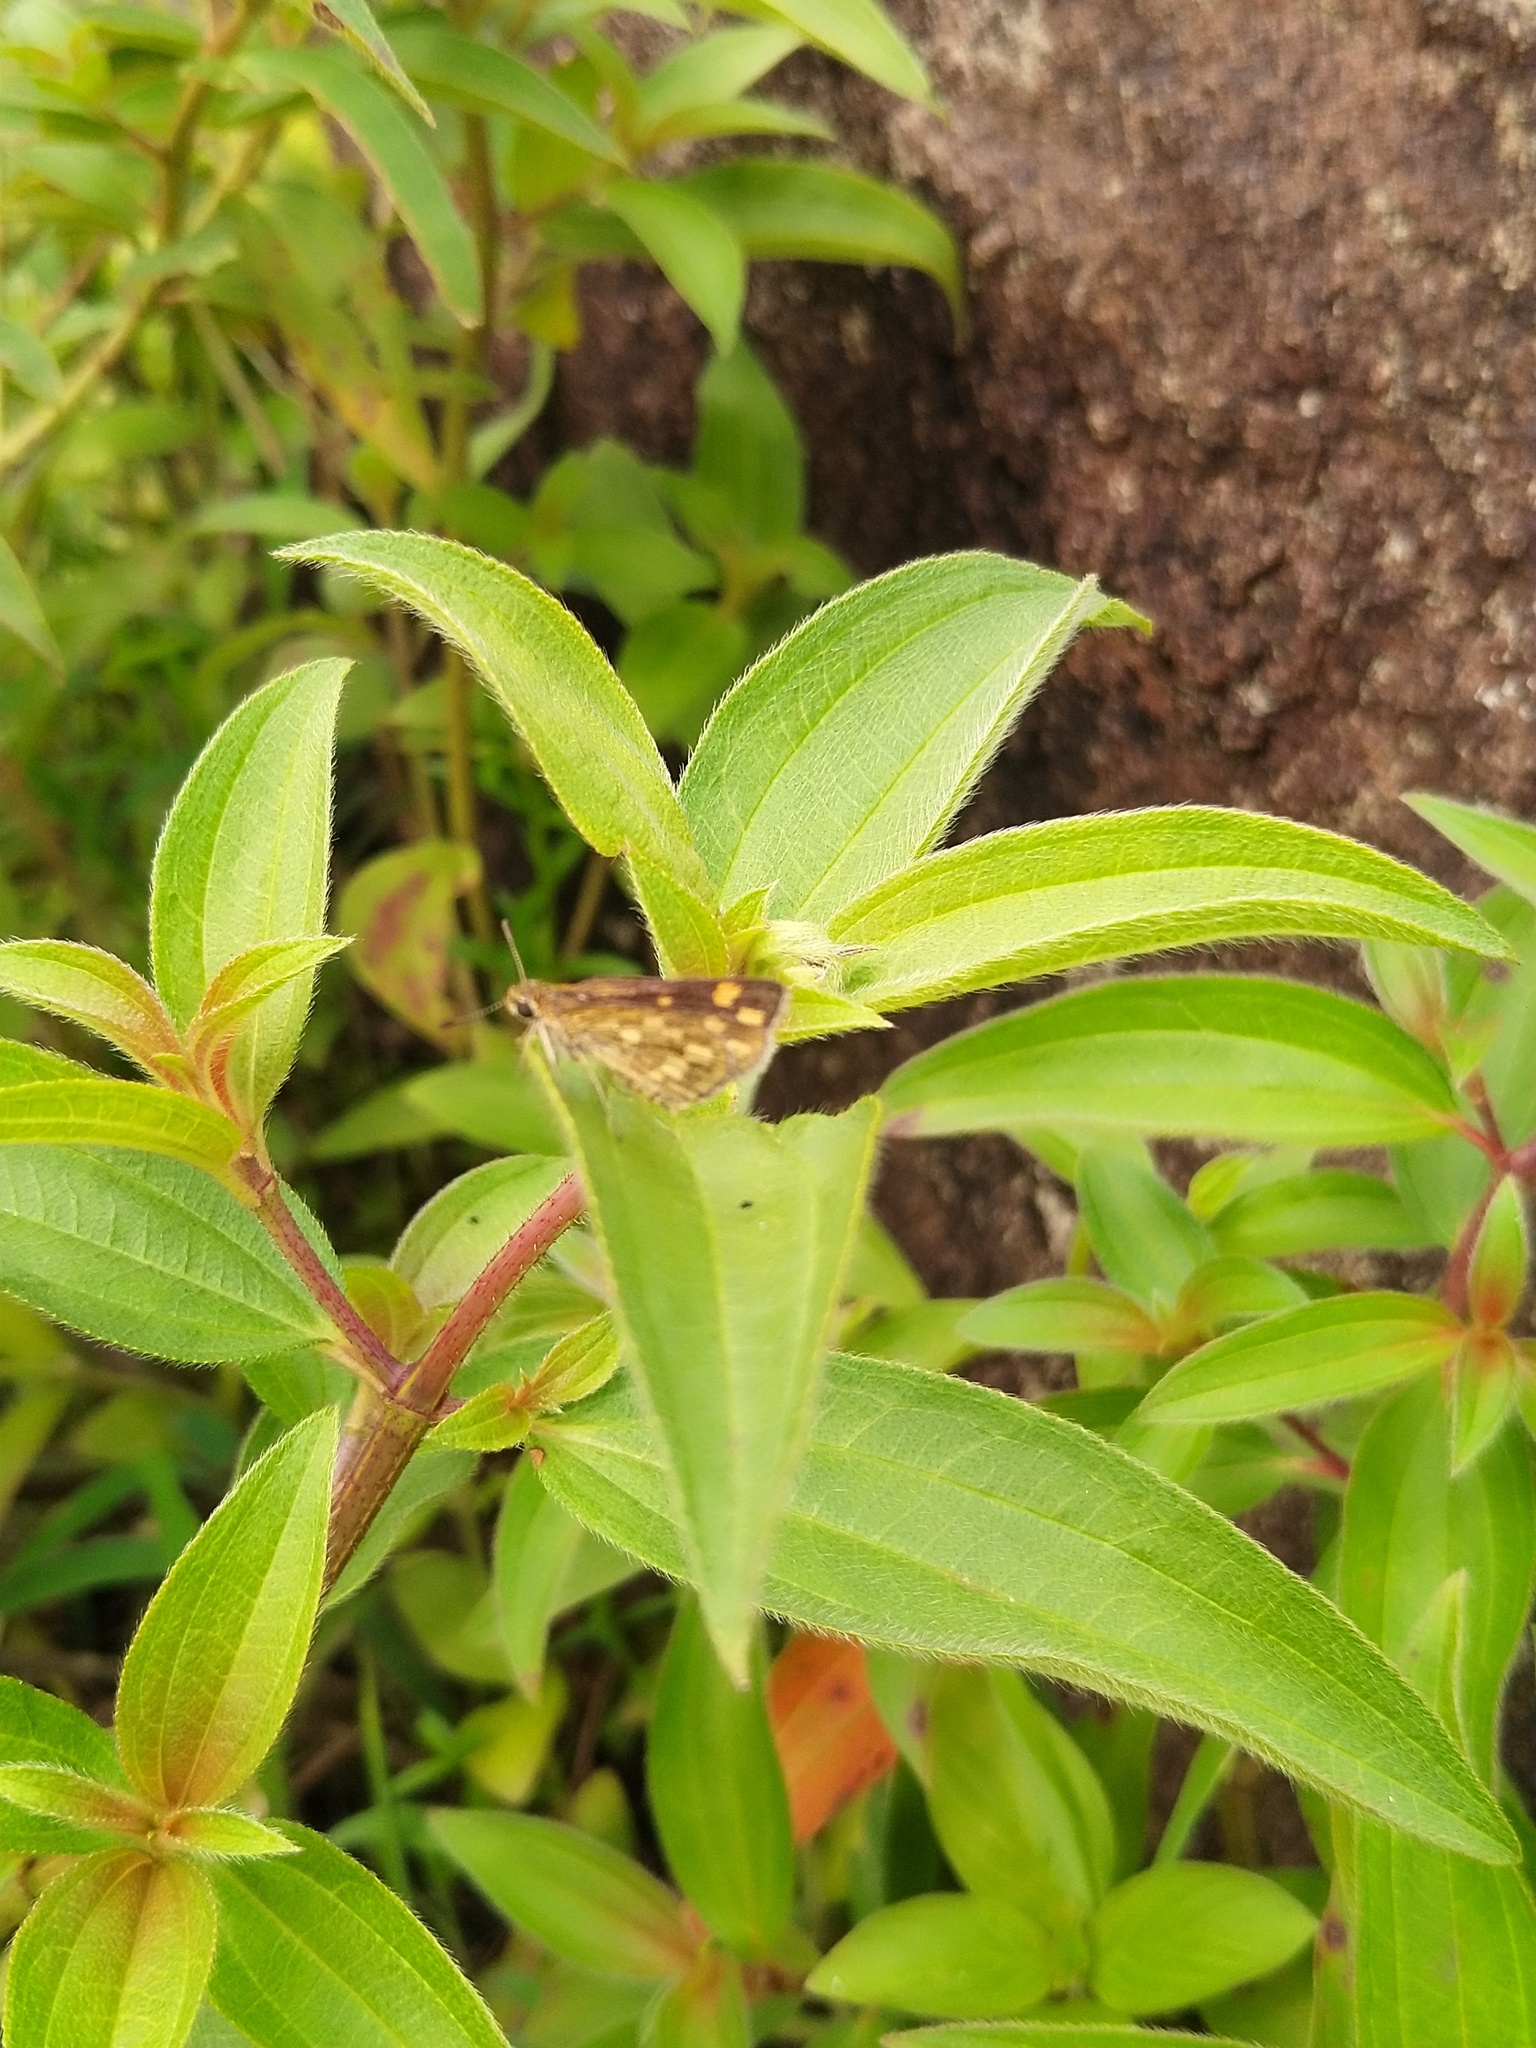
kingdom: Animalia
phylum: Arthropoda
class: Insecta
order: Lepidoptera
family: Hesperiidae
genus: Taractrocera
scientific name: Taractrocera ceramas
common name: Tamil grass dart
